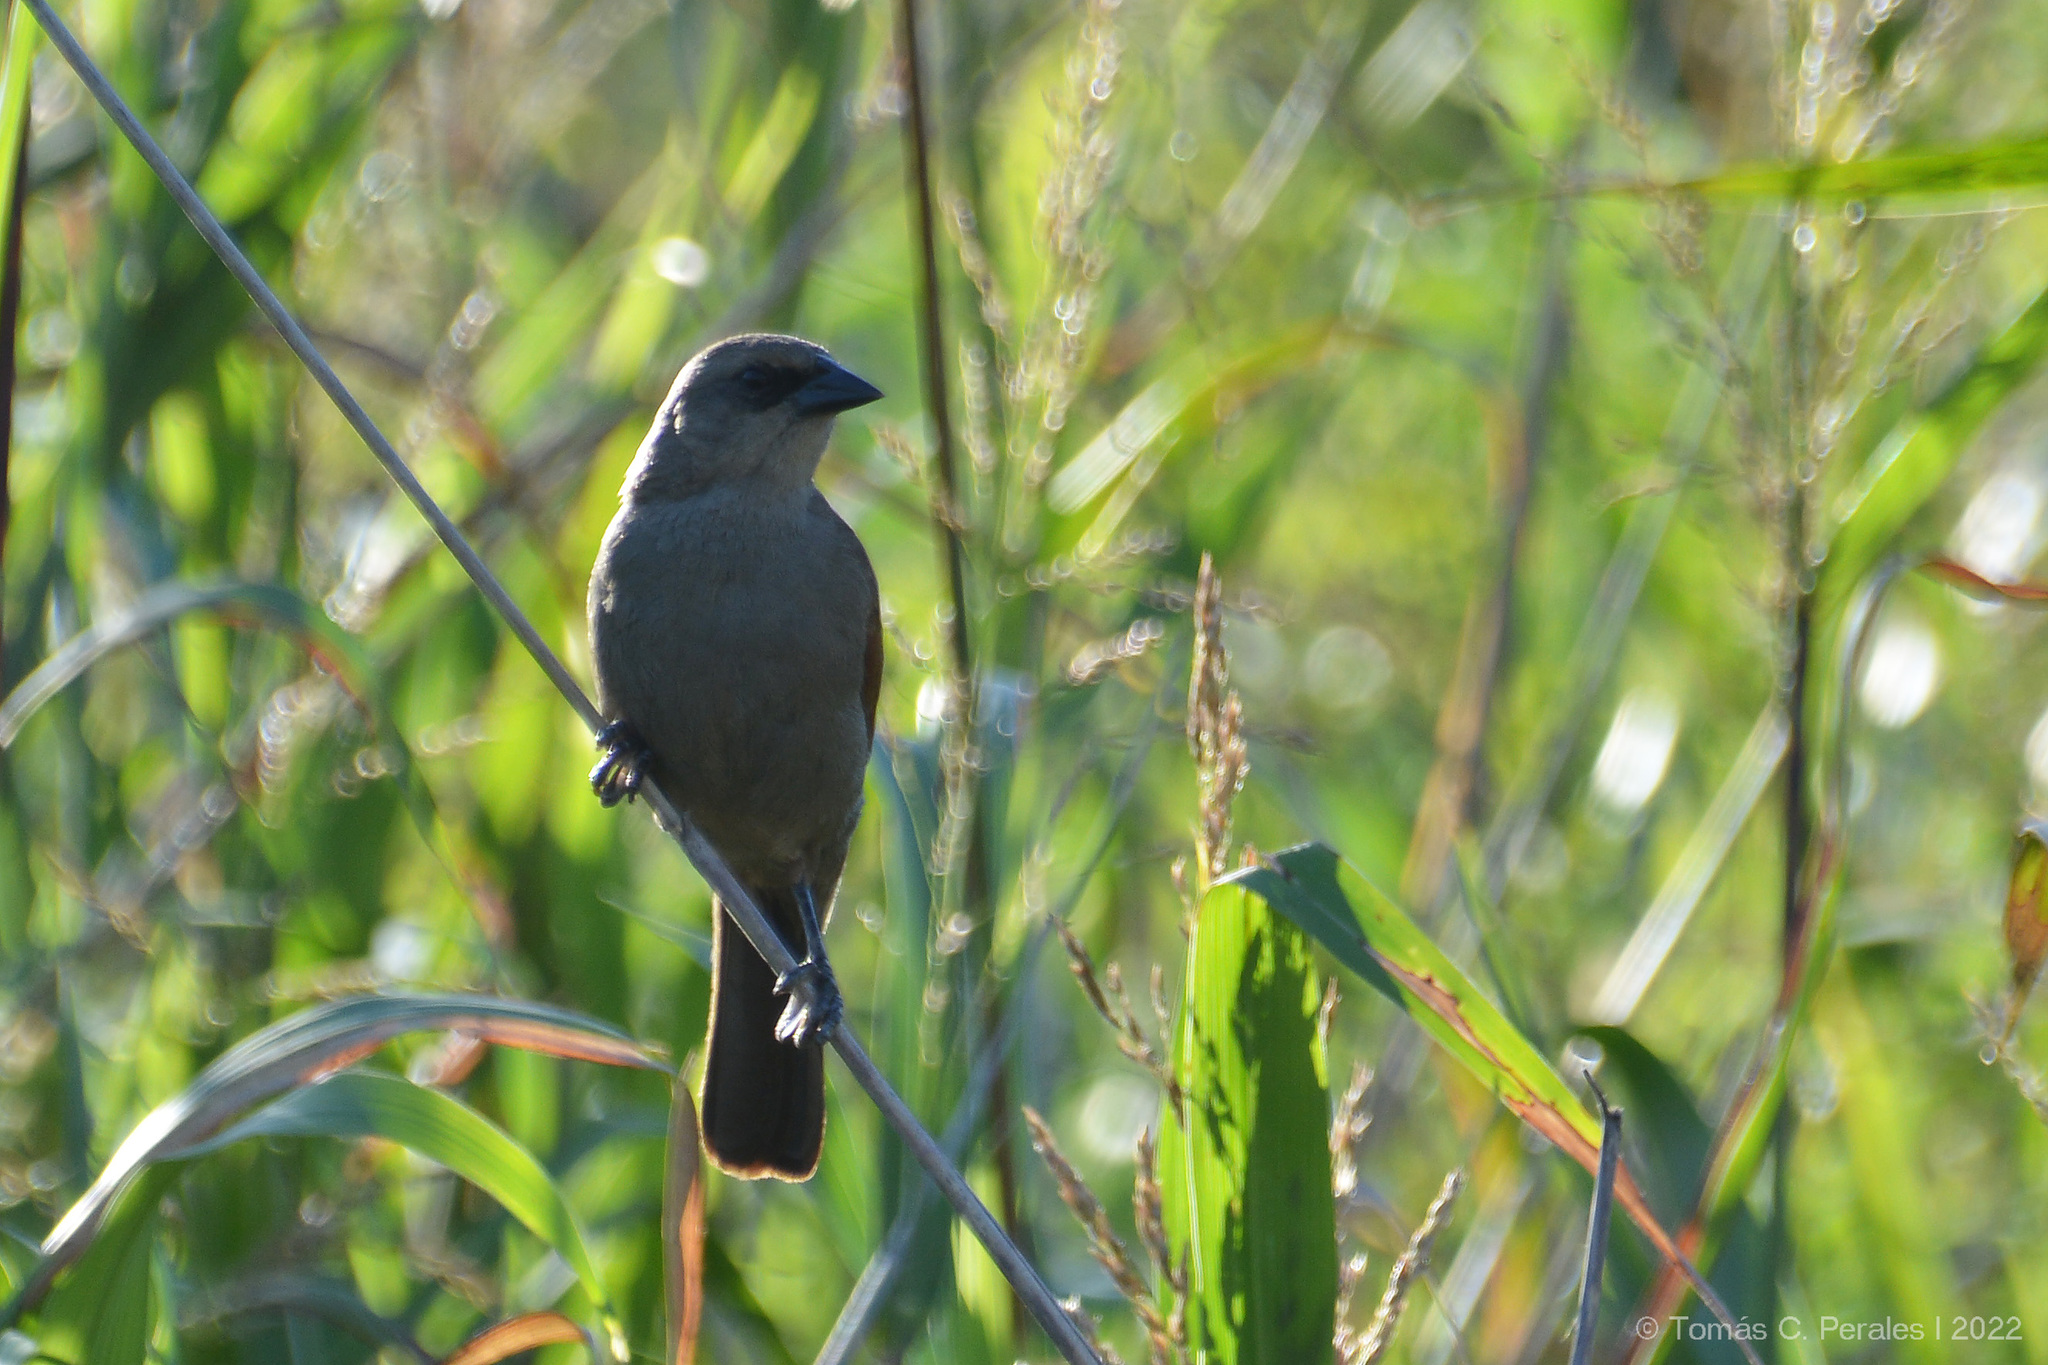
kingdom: Animalia
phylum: Chordata
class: Aves
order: Passeriformes
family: Icteridae
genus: Agelaioides
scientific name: Agelaioides badius
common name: Baywing
